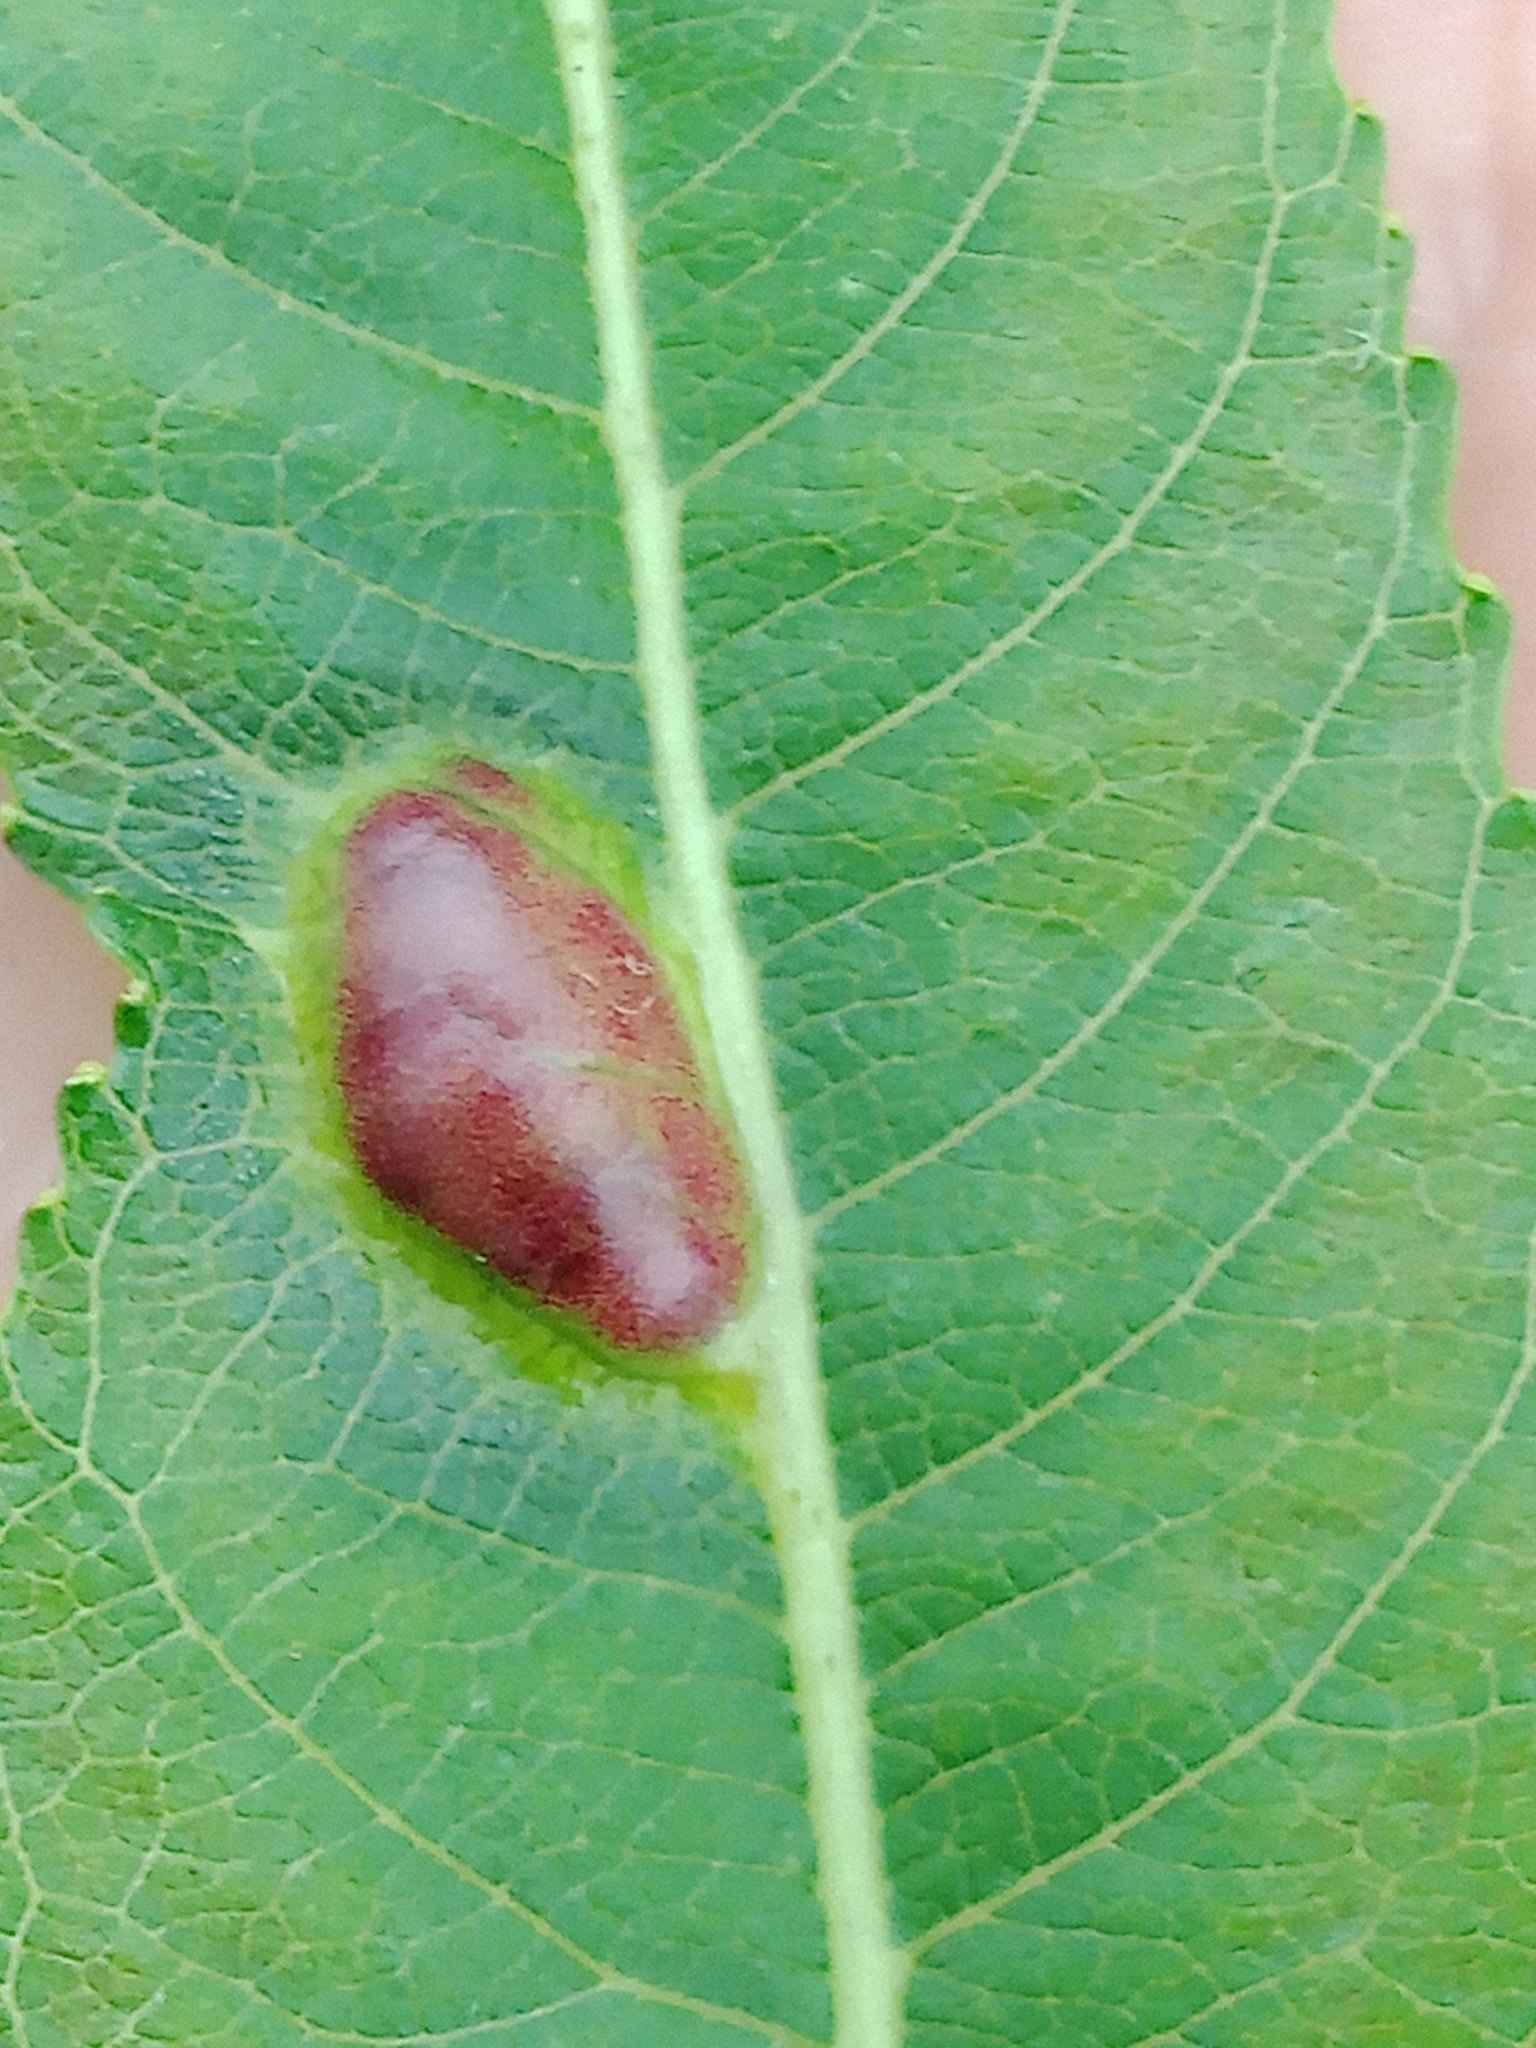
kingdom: Animalia
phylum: Arthropoda
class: Insecta
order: Hymenoptera
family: Tenthredinidae
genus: Pontania
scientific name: Pontania proxima
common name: Common sawfly
